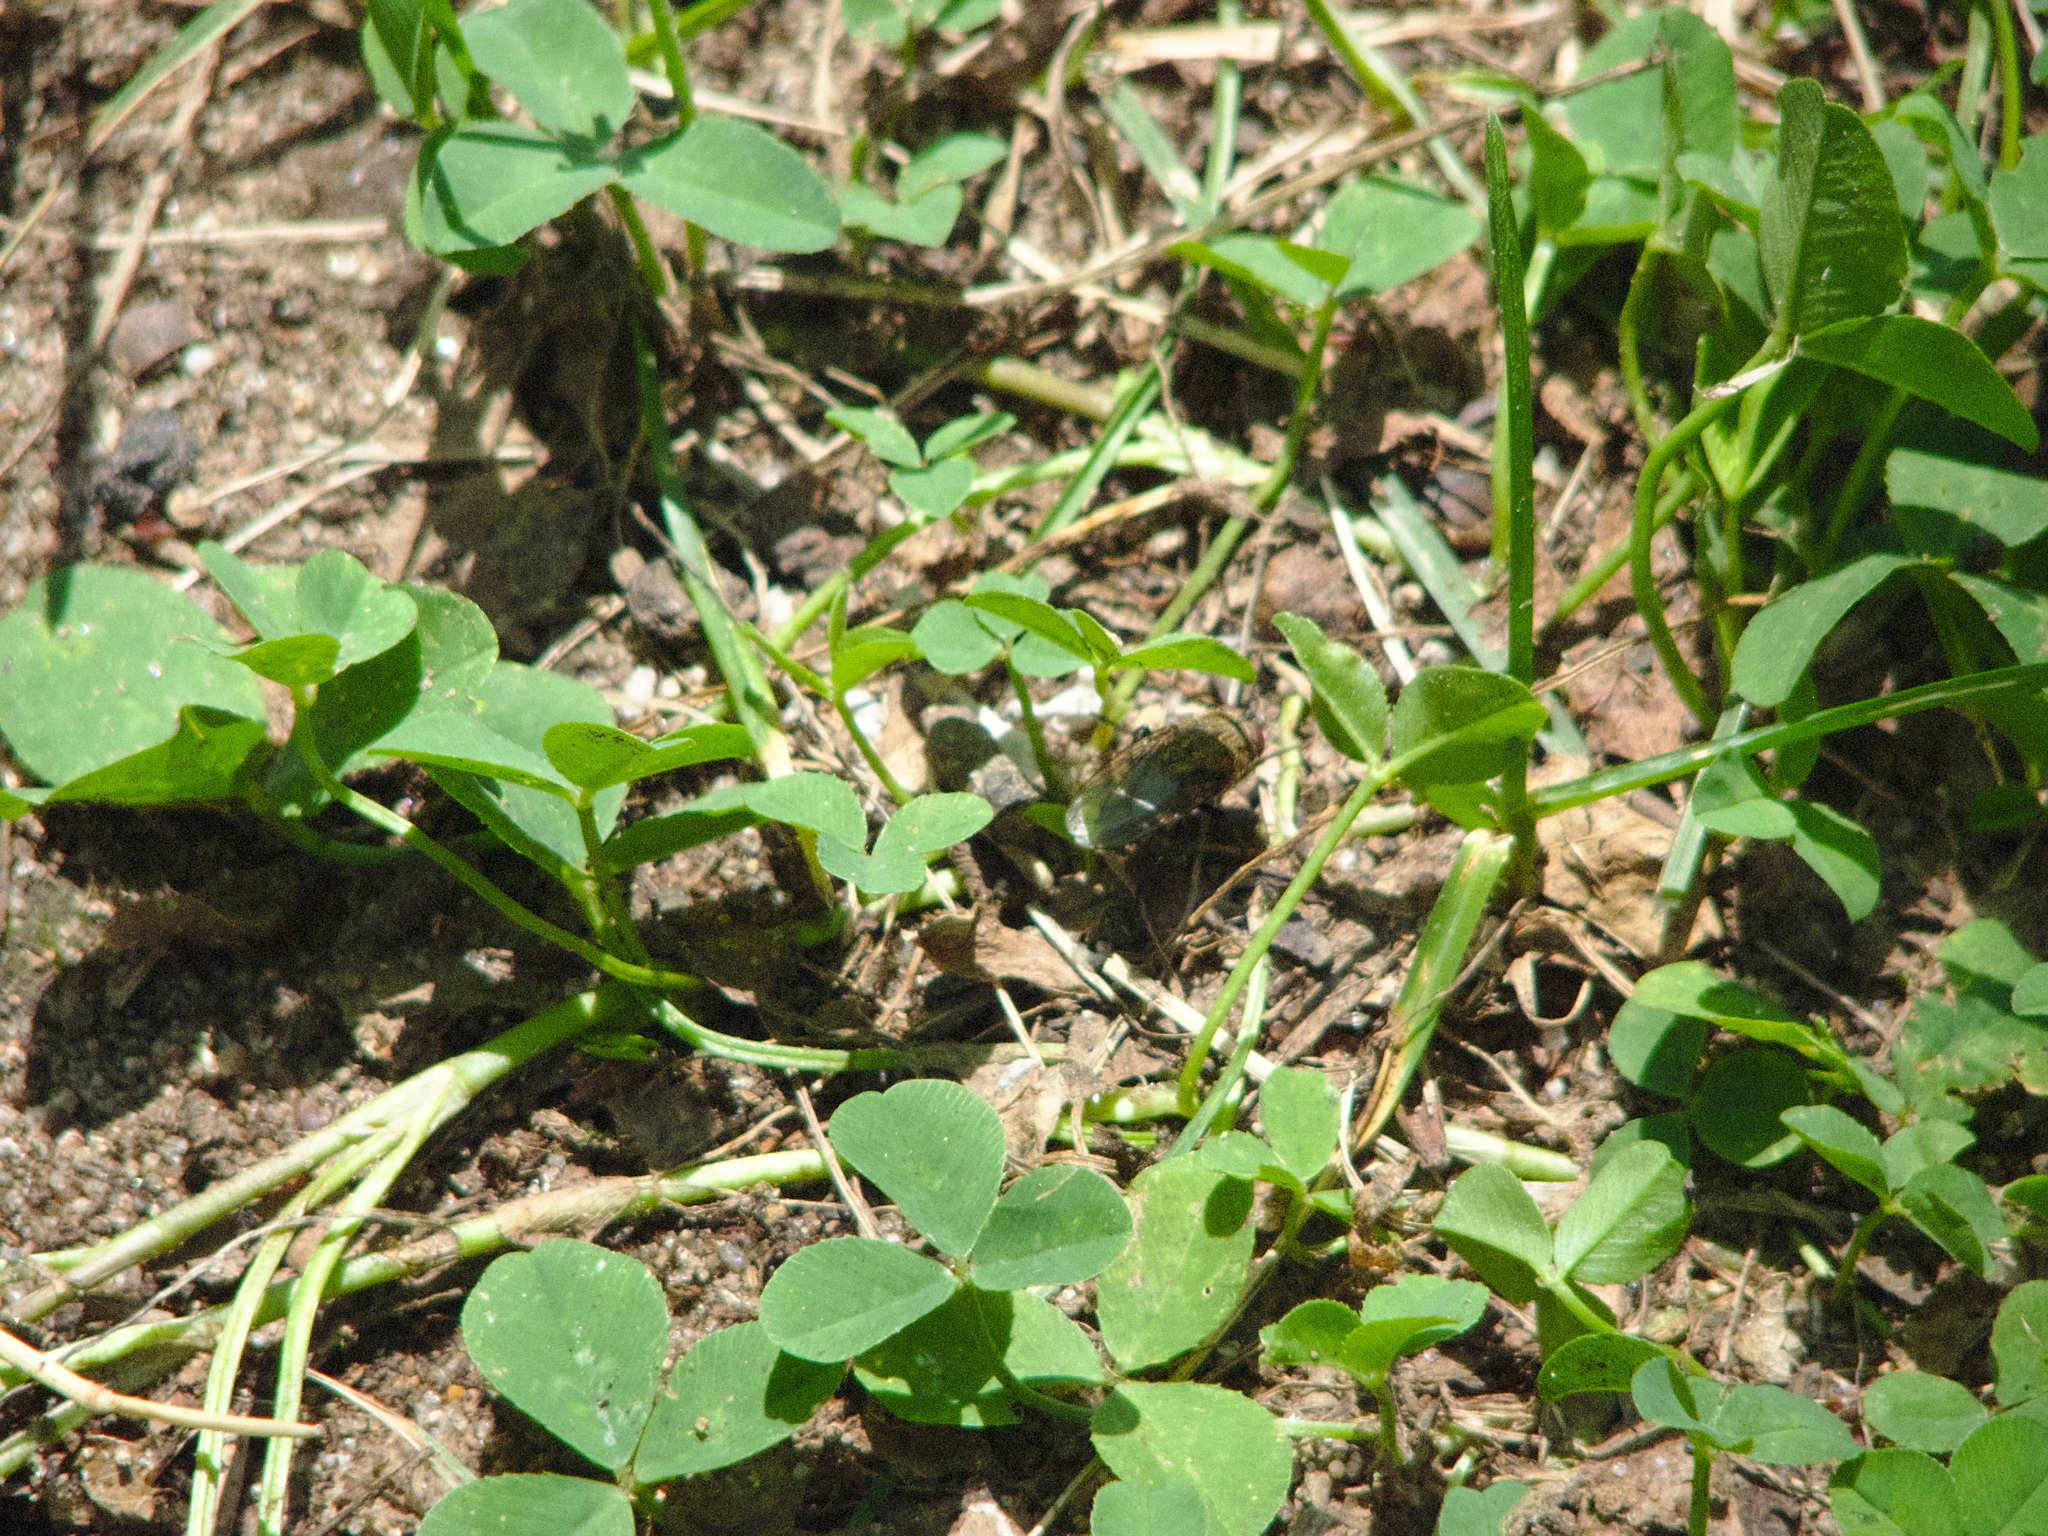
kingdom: Plantae
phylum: Tracheophyta
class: Magnoliopsida
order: Fabales
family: Fabaceae
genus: Trifolium
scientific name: Trifolium repens
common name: White clover
